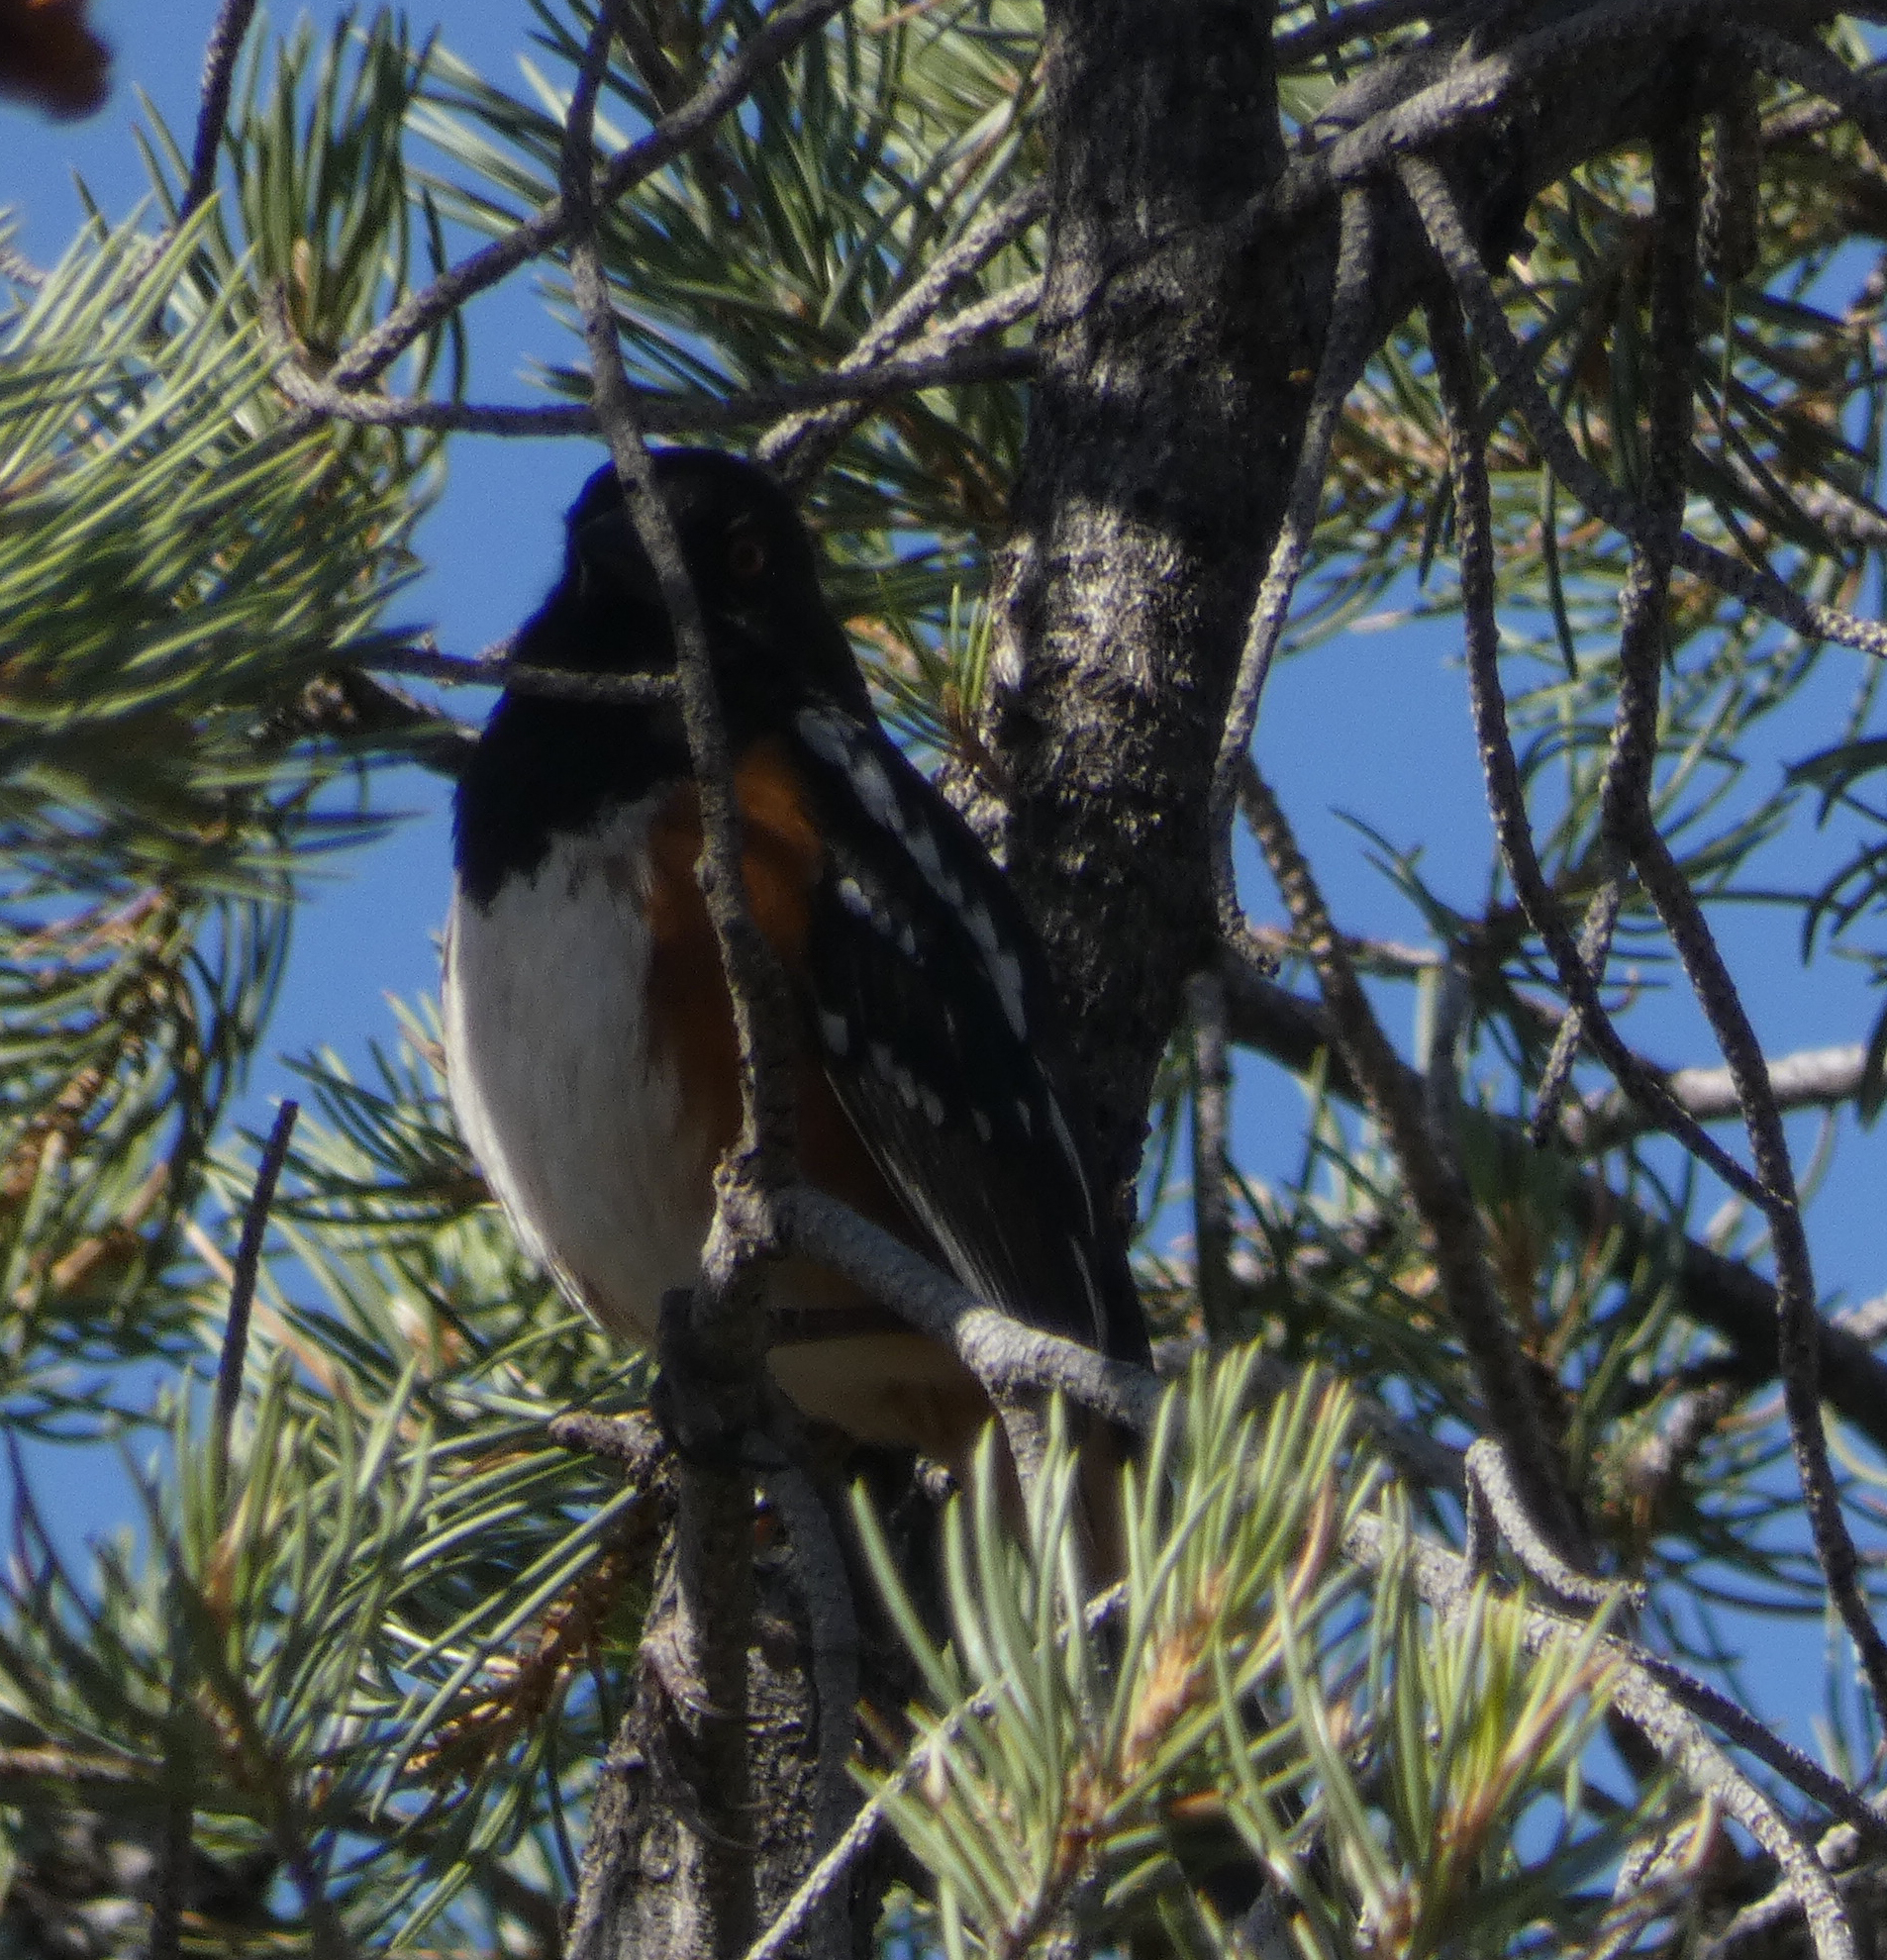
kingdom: Animalia
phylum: Chordata
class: Aves
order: Passeriformes
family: Passerellidae
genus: Pipilo
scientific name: Pipilo maculatus
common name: Spotted towhee
